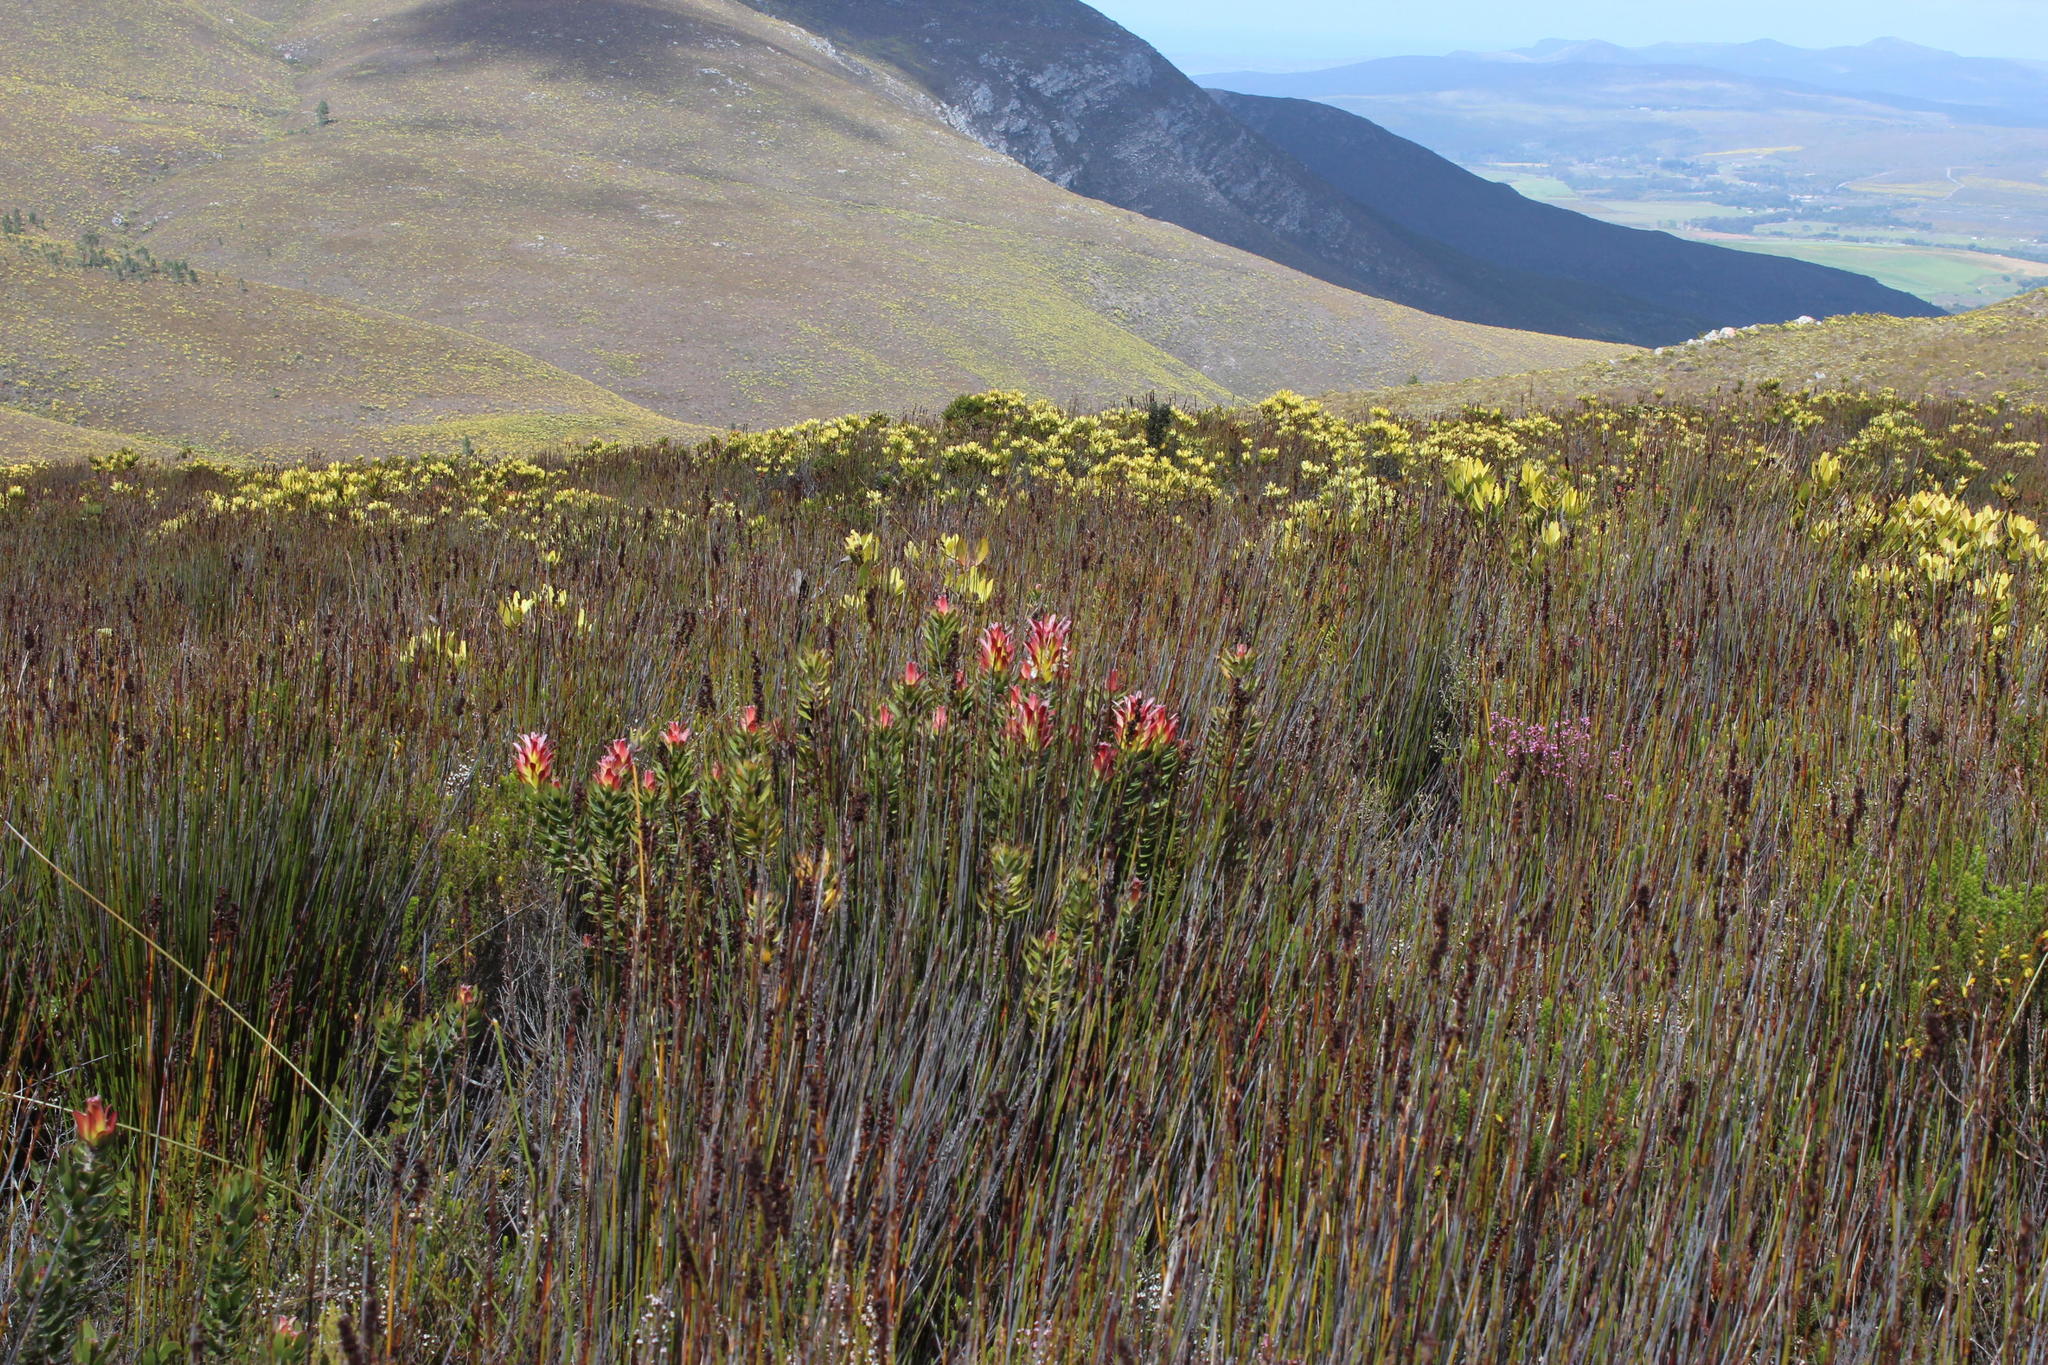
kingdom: Plantae
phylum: Tracheophyta
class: Liliopsida
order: Poales
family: Restionaceae
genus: Elegia
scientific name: Elegia hookeriana
